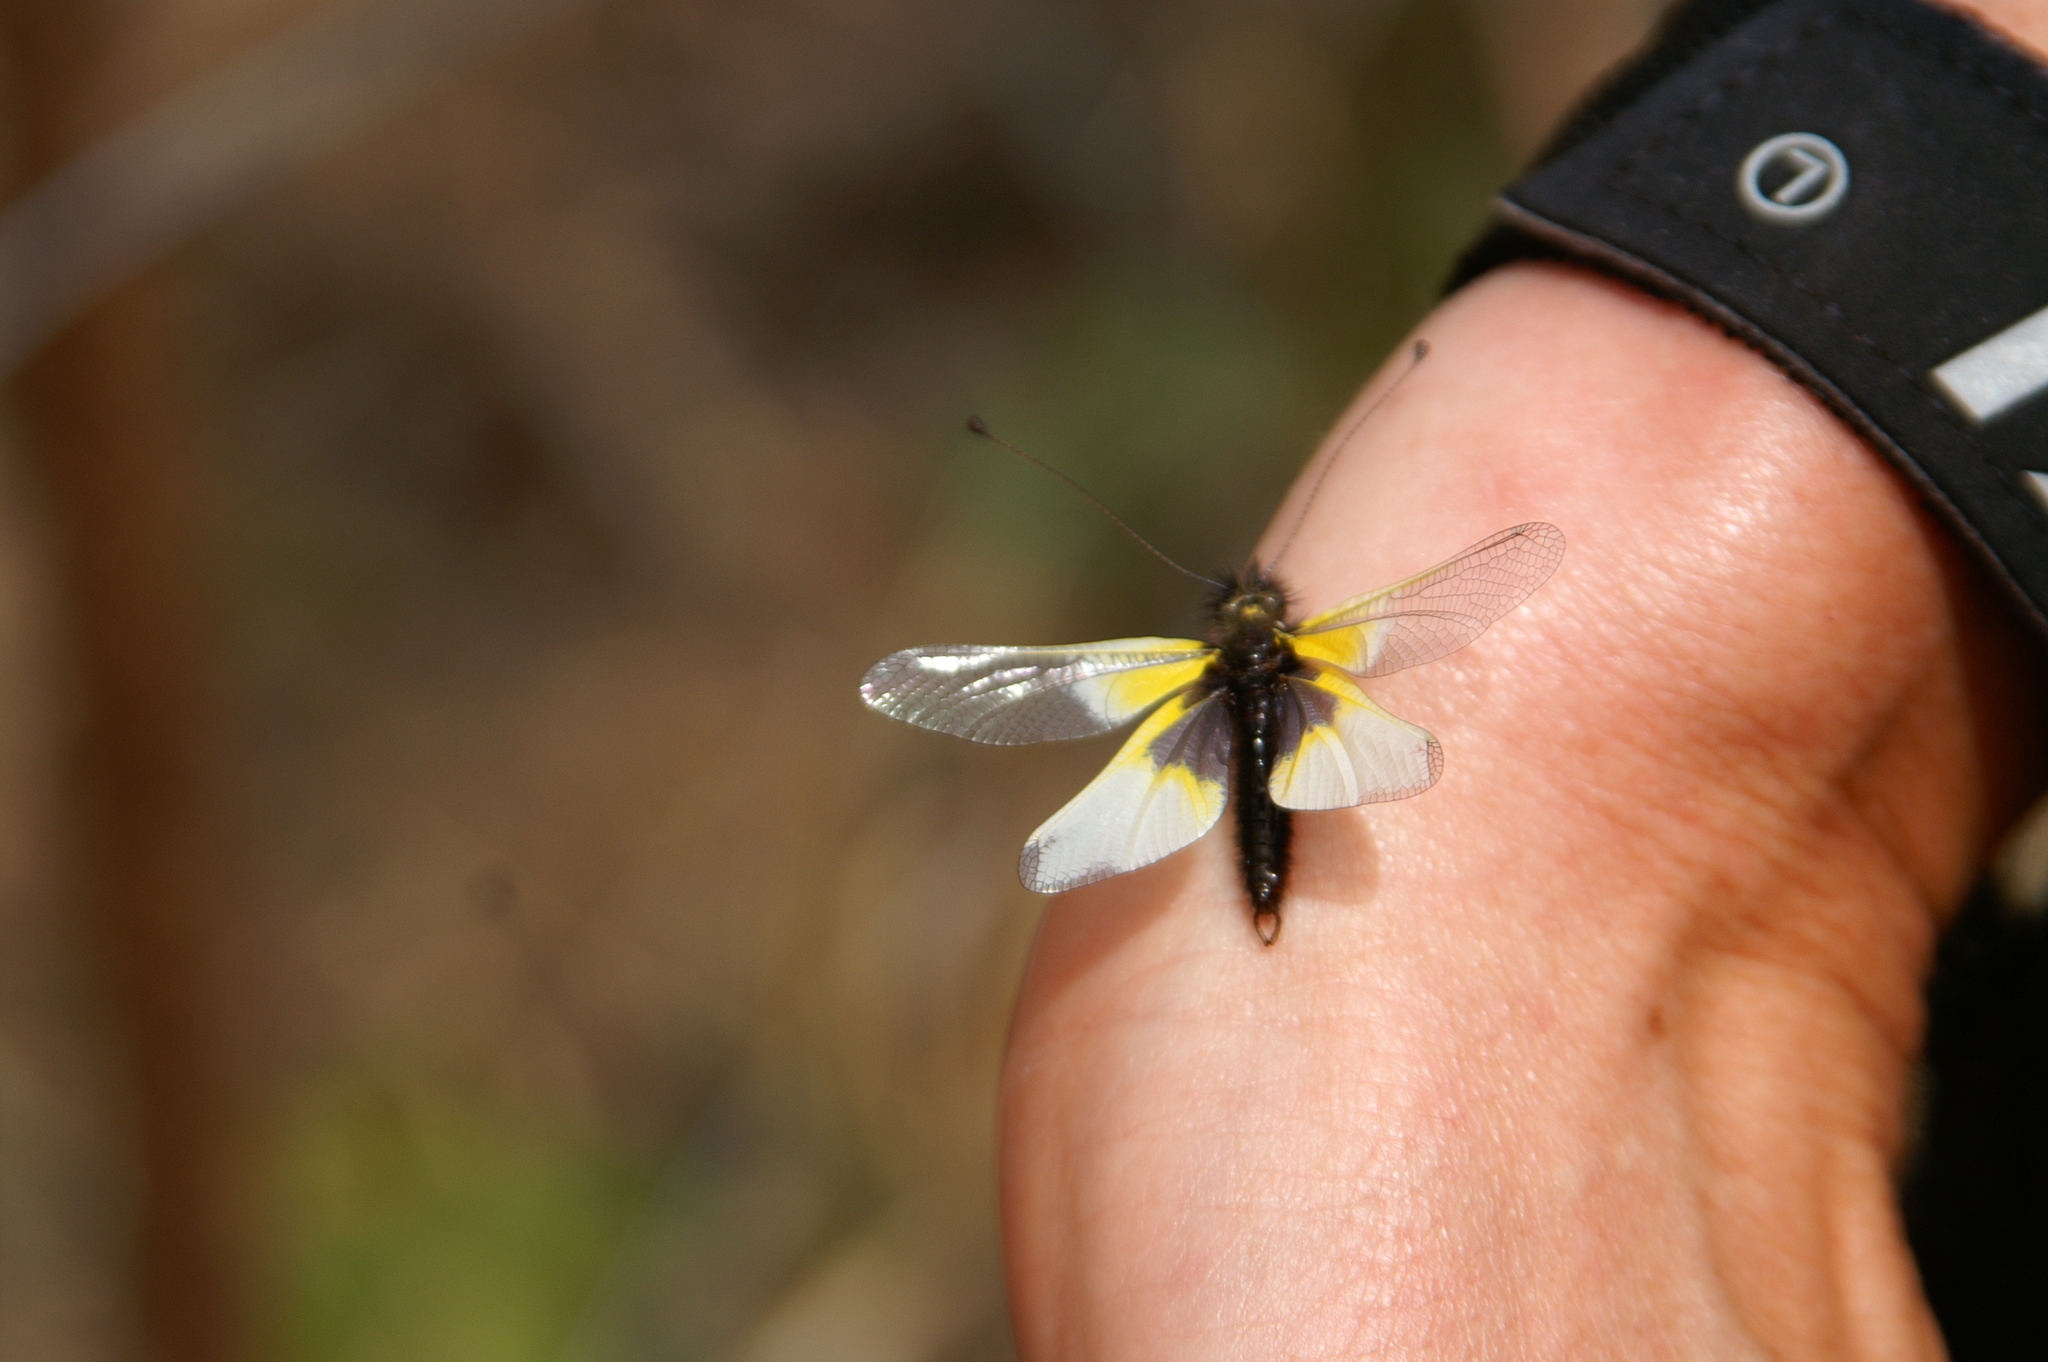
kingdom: Animalia
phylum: Arthropoda
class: Insecta
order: Neuroptera
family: Ascalaphidae
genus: Libelloides
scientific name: Libelloides baeticus
